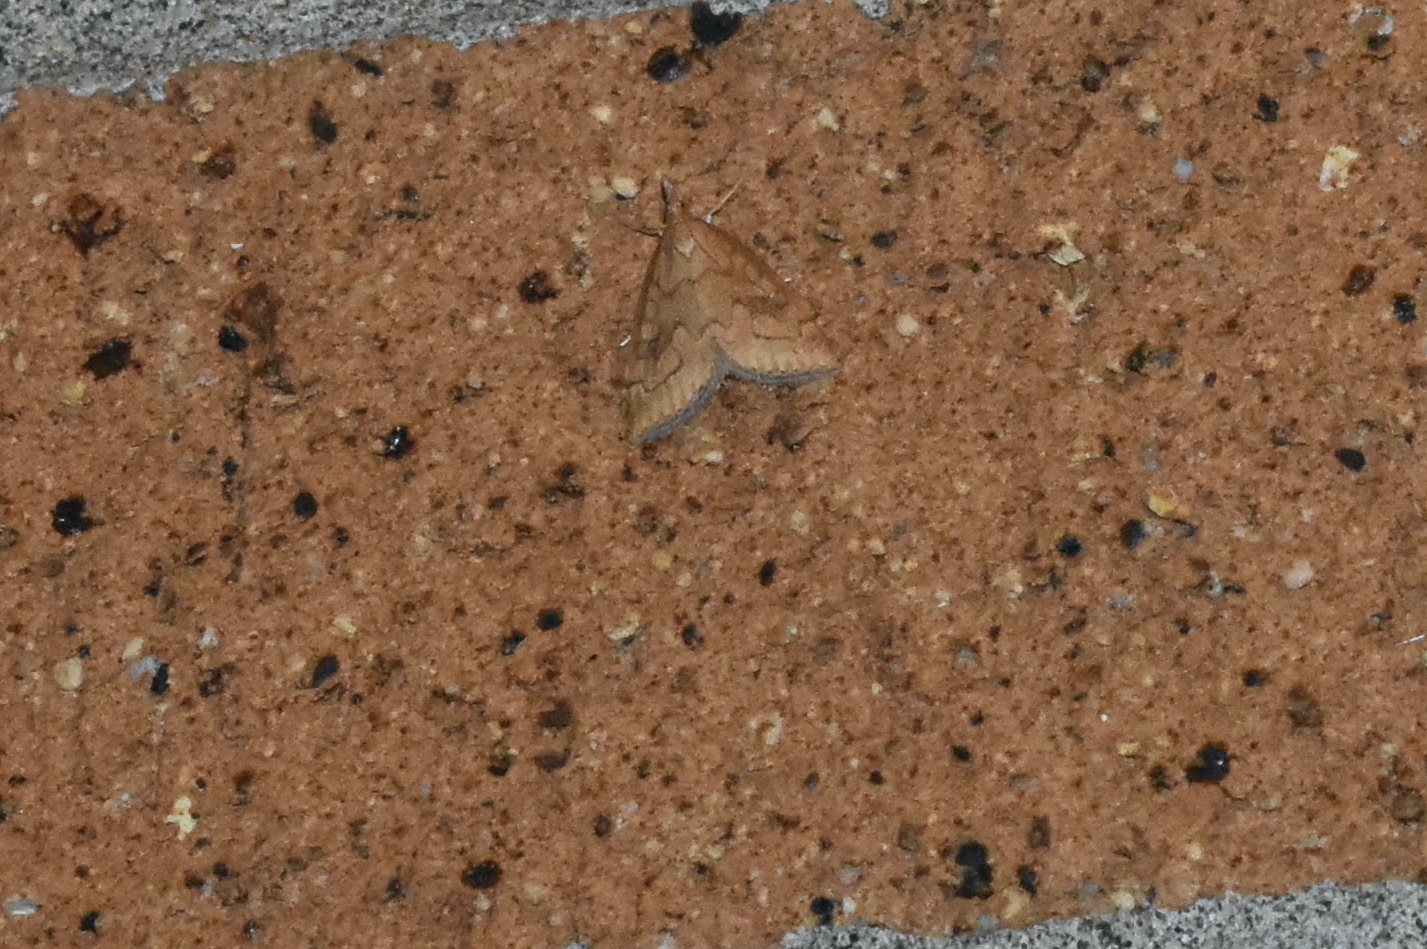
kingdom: Animalia
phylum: Arthropoda
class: Insecta
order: Lepidoptera
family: Crambidae
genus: Udea
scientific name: Udea profundalis
